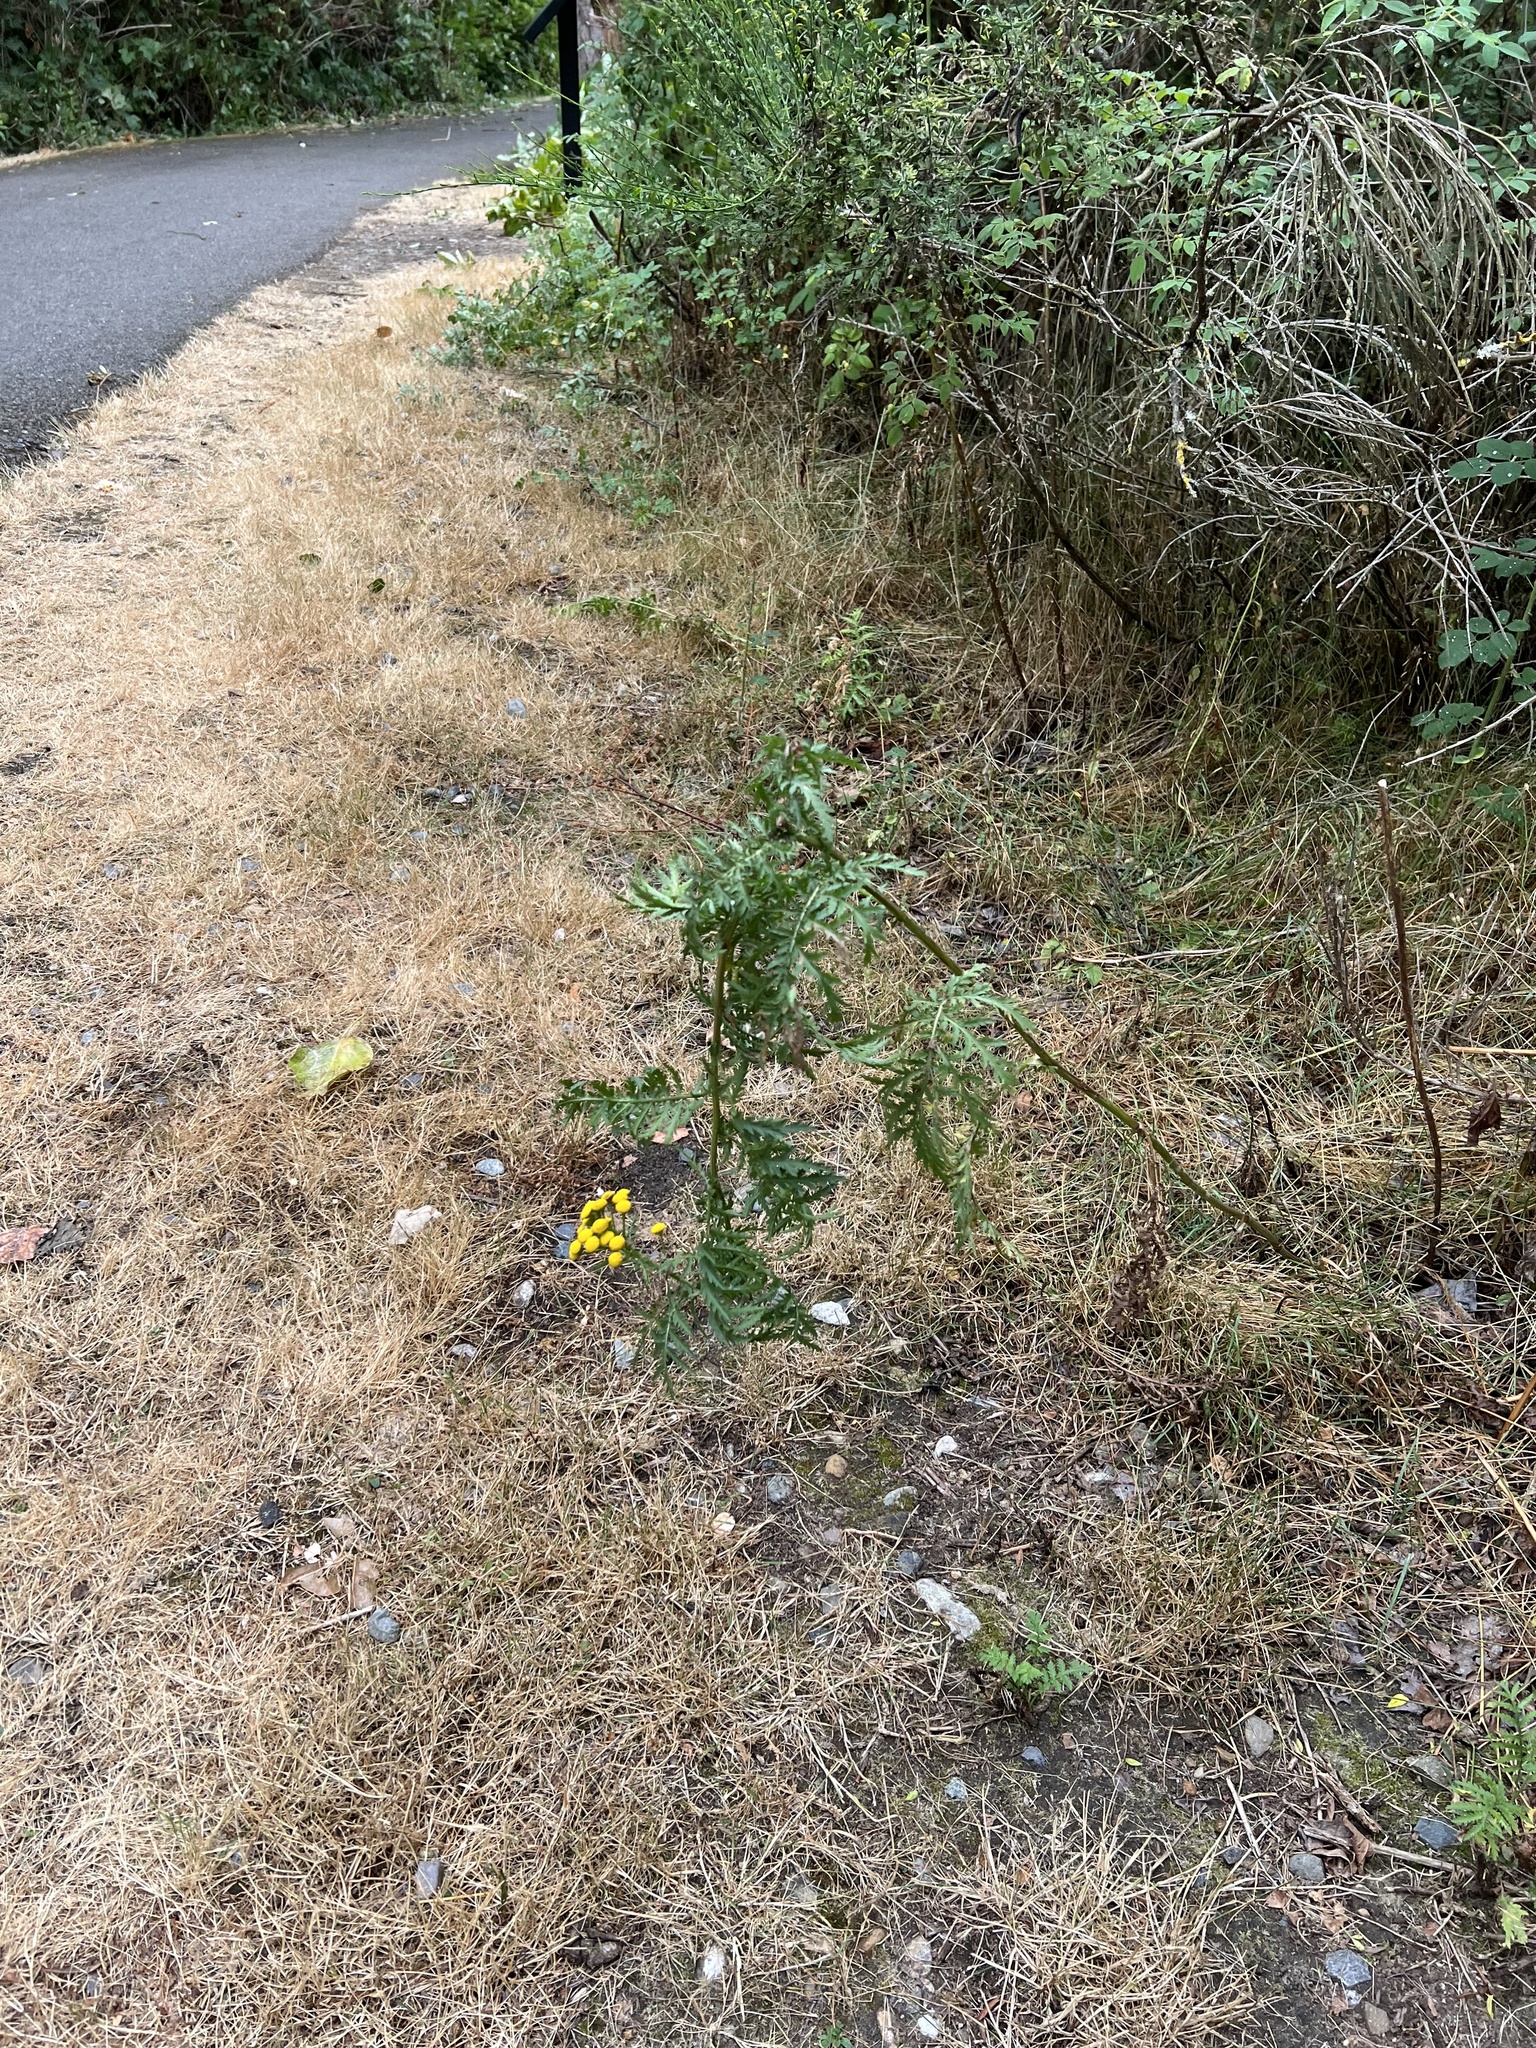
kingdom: Plantae
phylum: Tracheophyta
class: Magnoliopsida
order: Asterales
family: Asteraceae
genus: Tanacetum
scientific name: Tanacetum vulgare
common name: Common tansy
